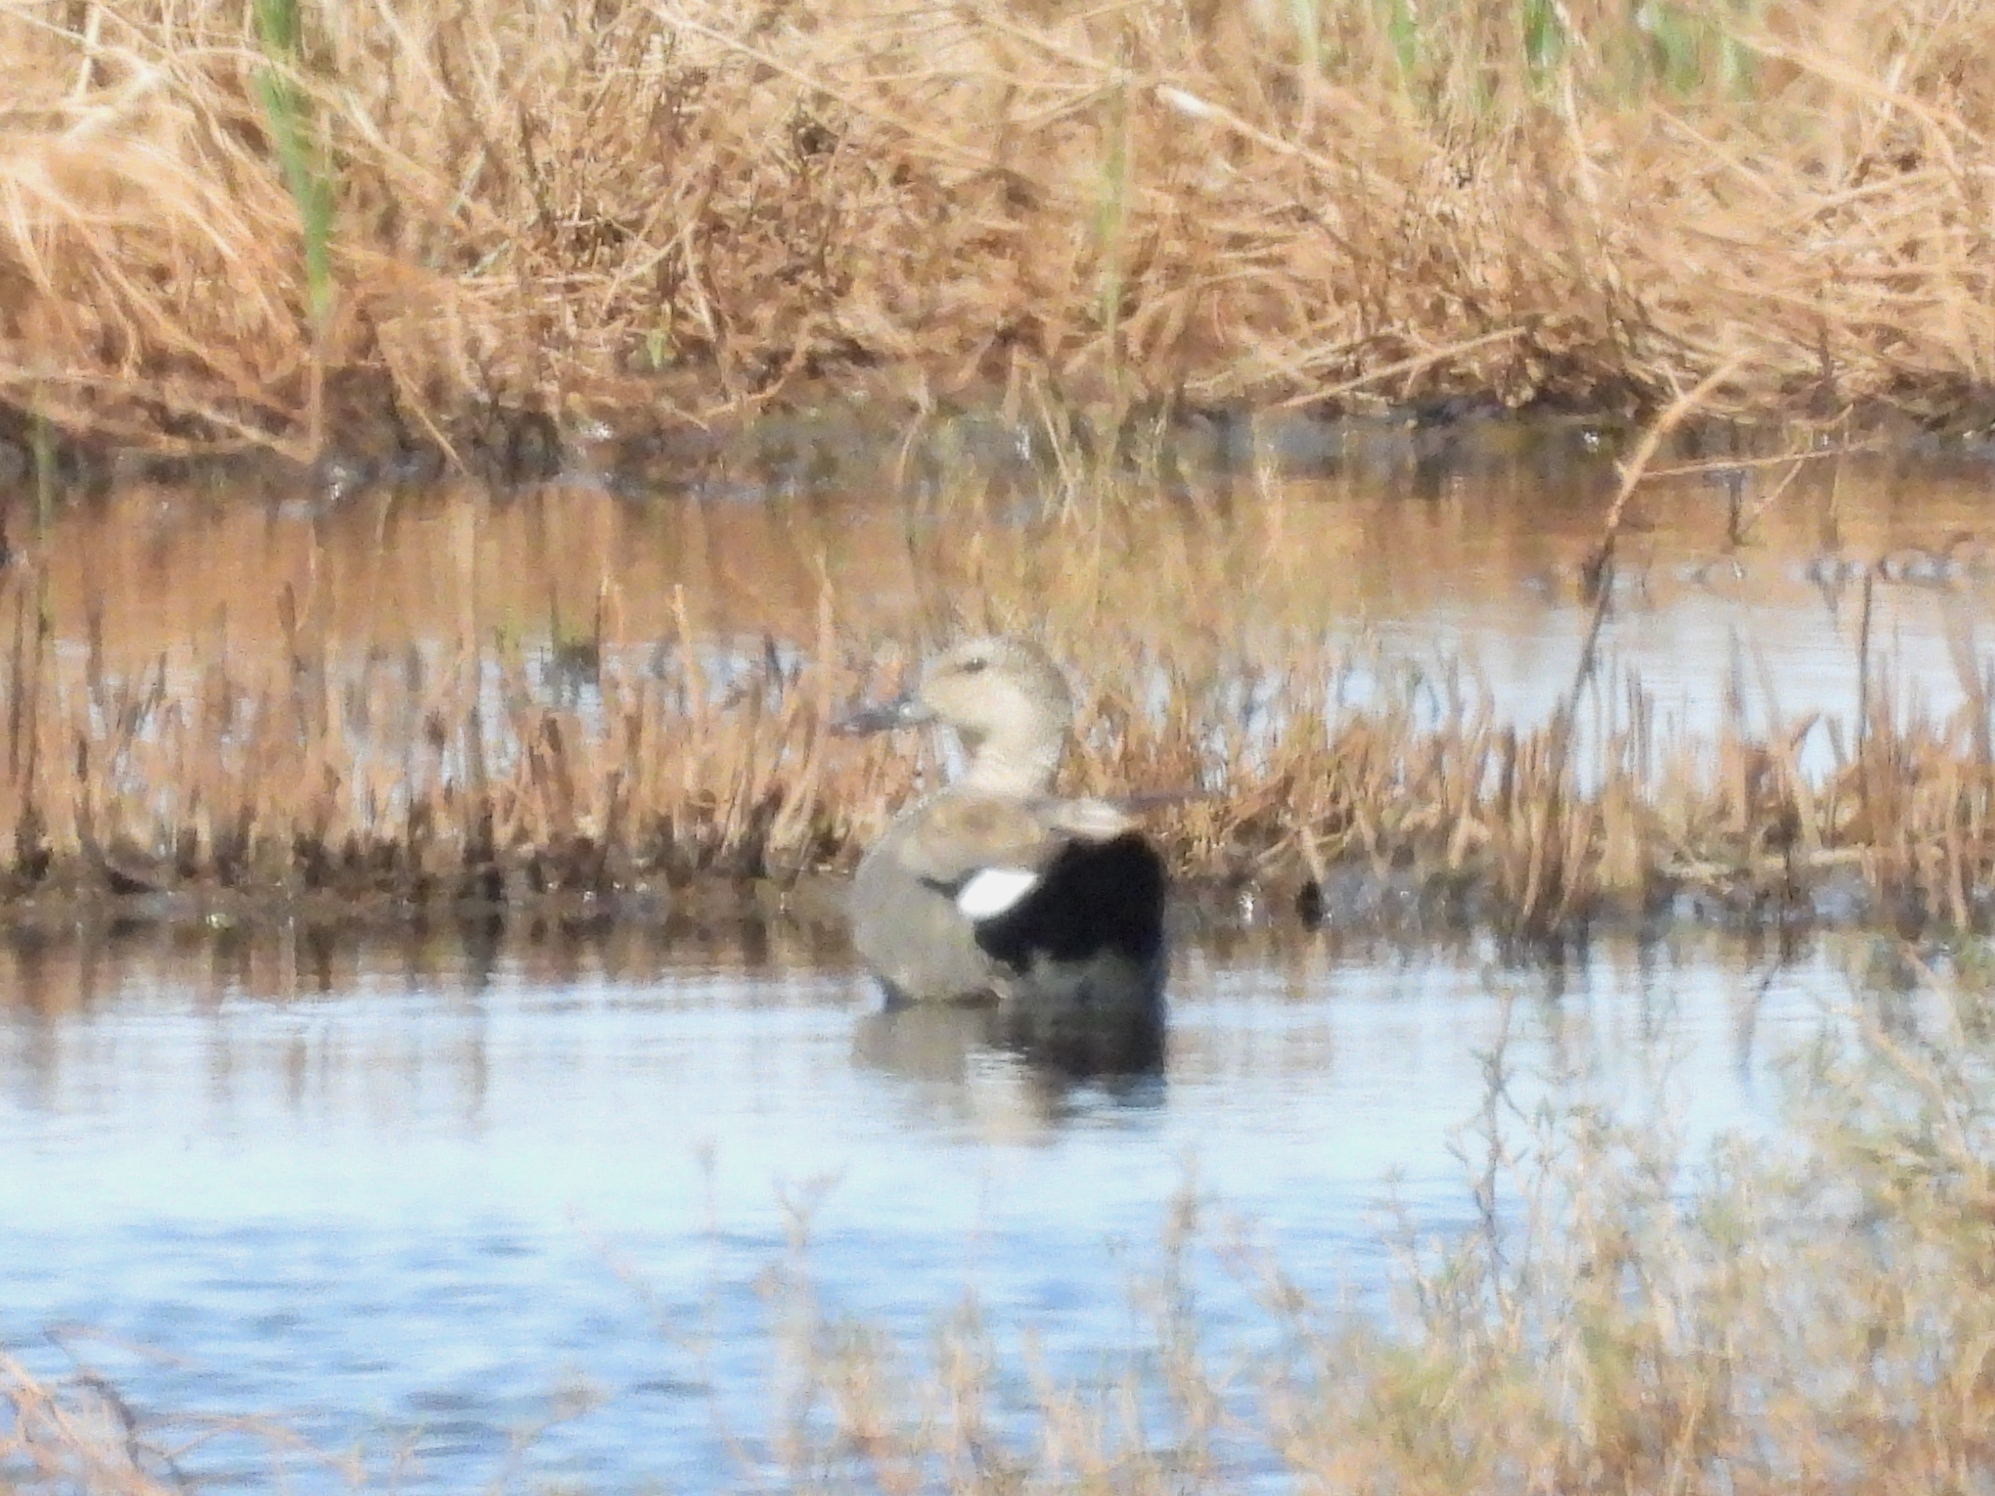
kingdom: Animalia
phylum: Chordata
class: Aves
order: Anseriformes
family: Anatidae
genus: Mareca
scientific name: Mareca strepera
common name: Gadwall
